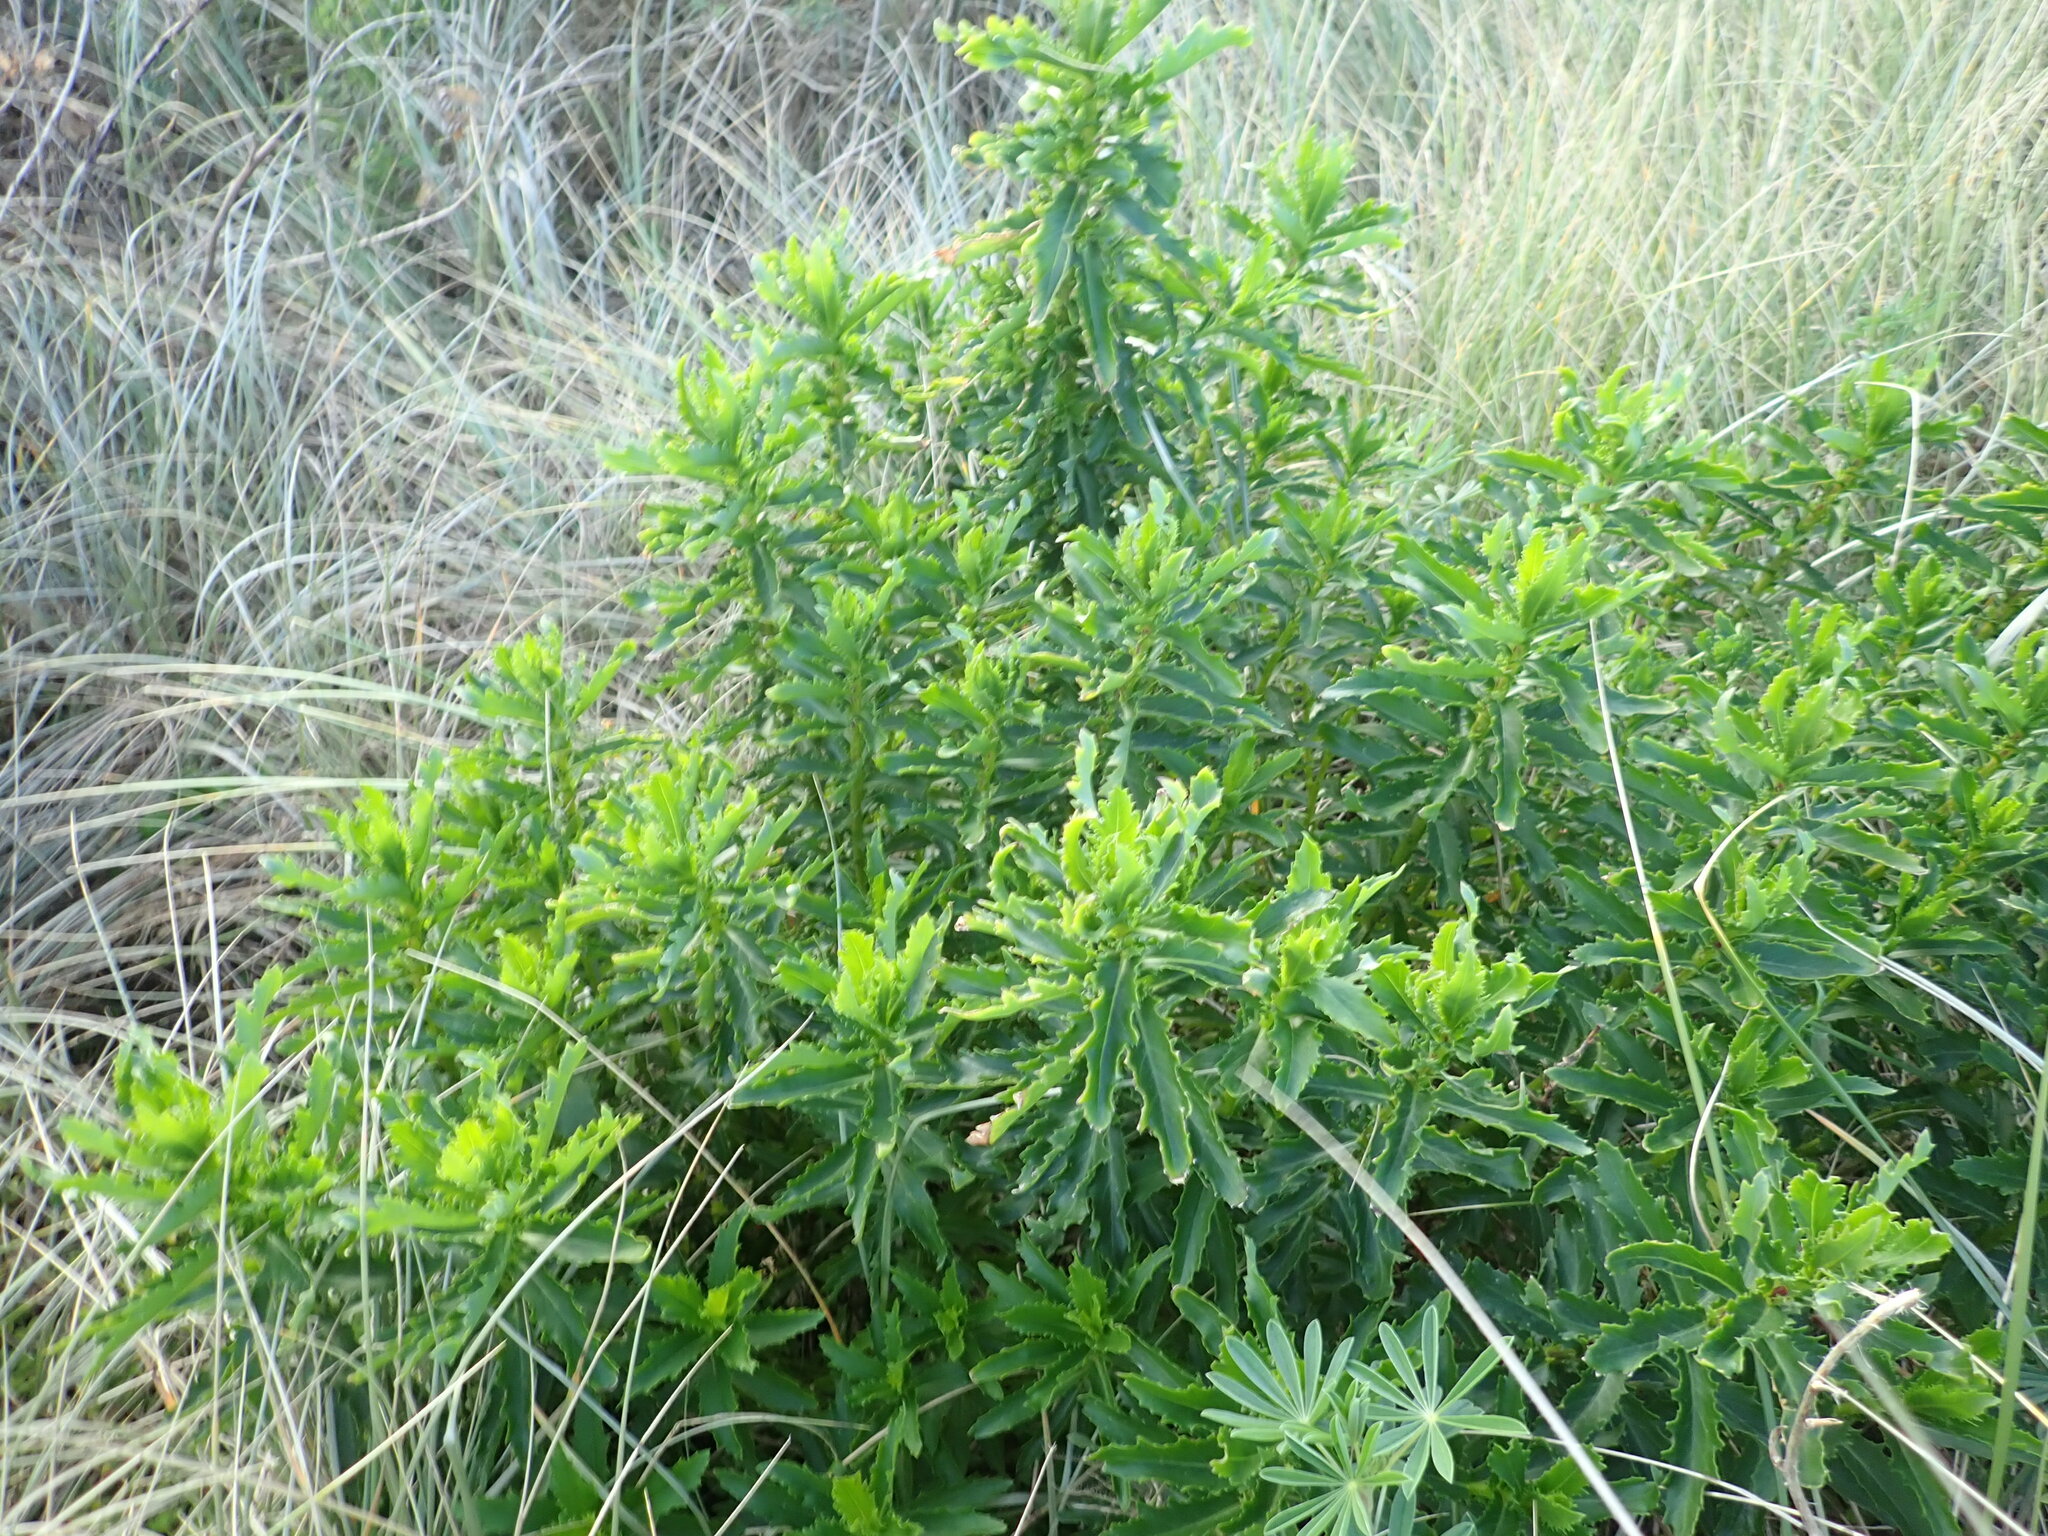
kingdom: Plantae
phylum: Tracheophyta
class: Magnoliopsida
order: Asterales
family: Asteraceae
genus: Senecio
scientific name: Senecio glastifolius
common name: Woad-leaved ragwort
